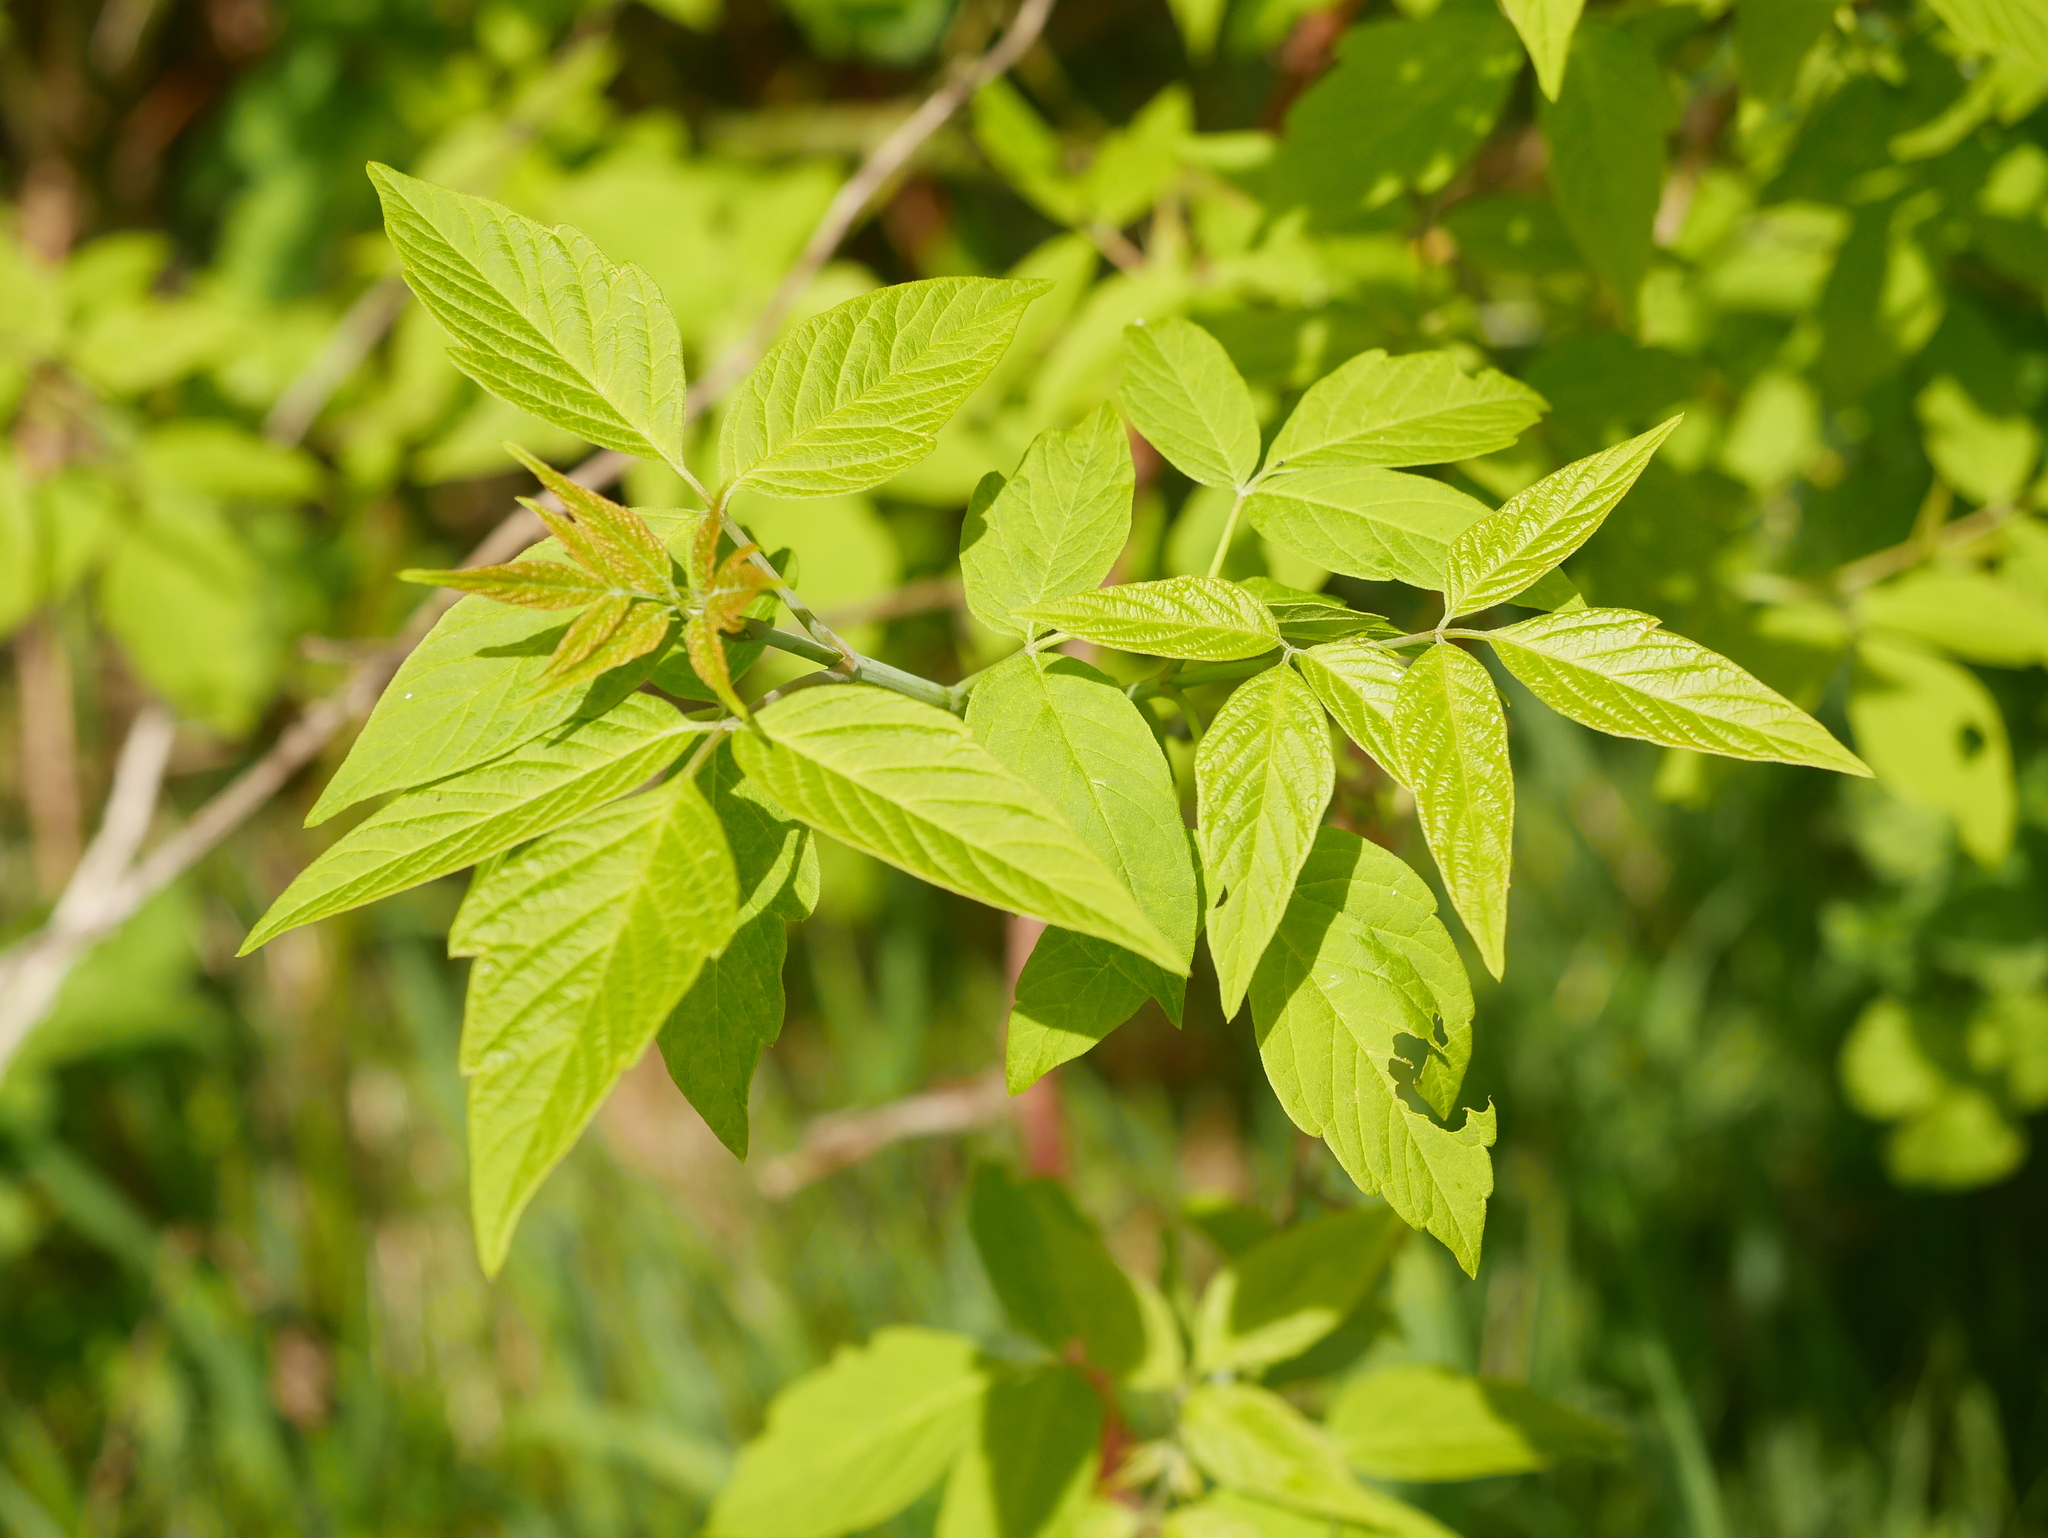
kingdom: Plantae
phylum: Tracheophyta
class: Magnoliopsida
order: Sapindales
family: Sapindaceae
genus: Acer
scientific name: Acer negundo
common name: Ashleaf maple
